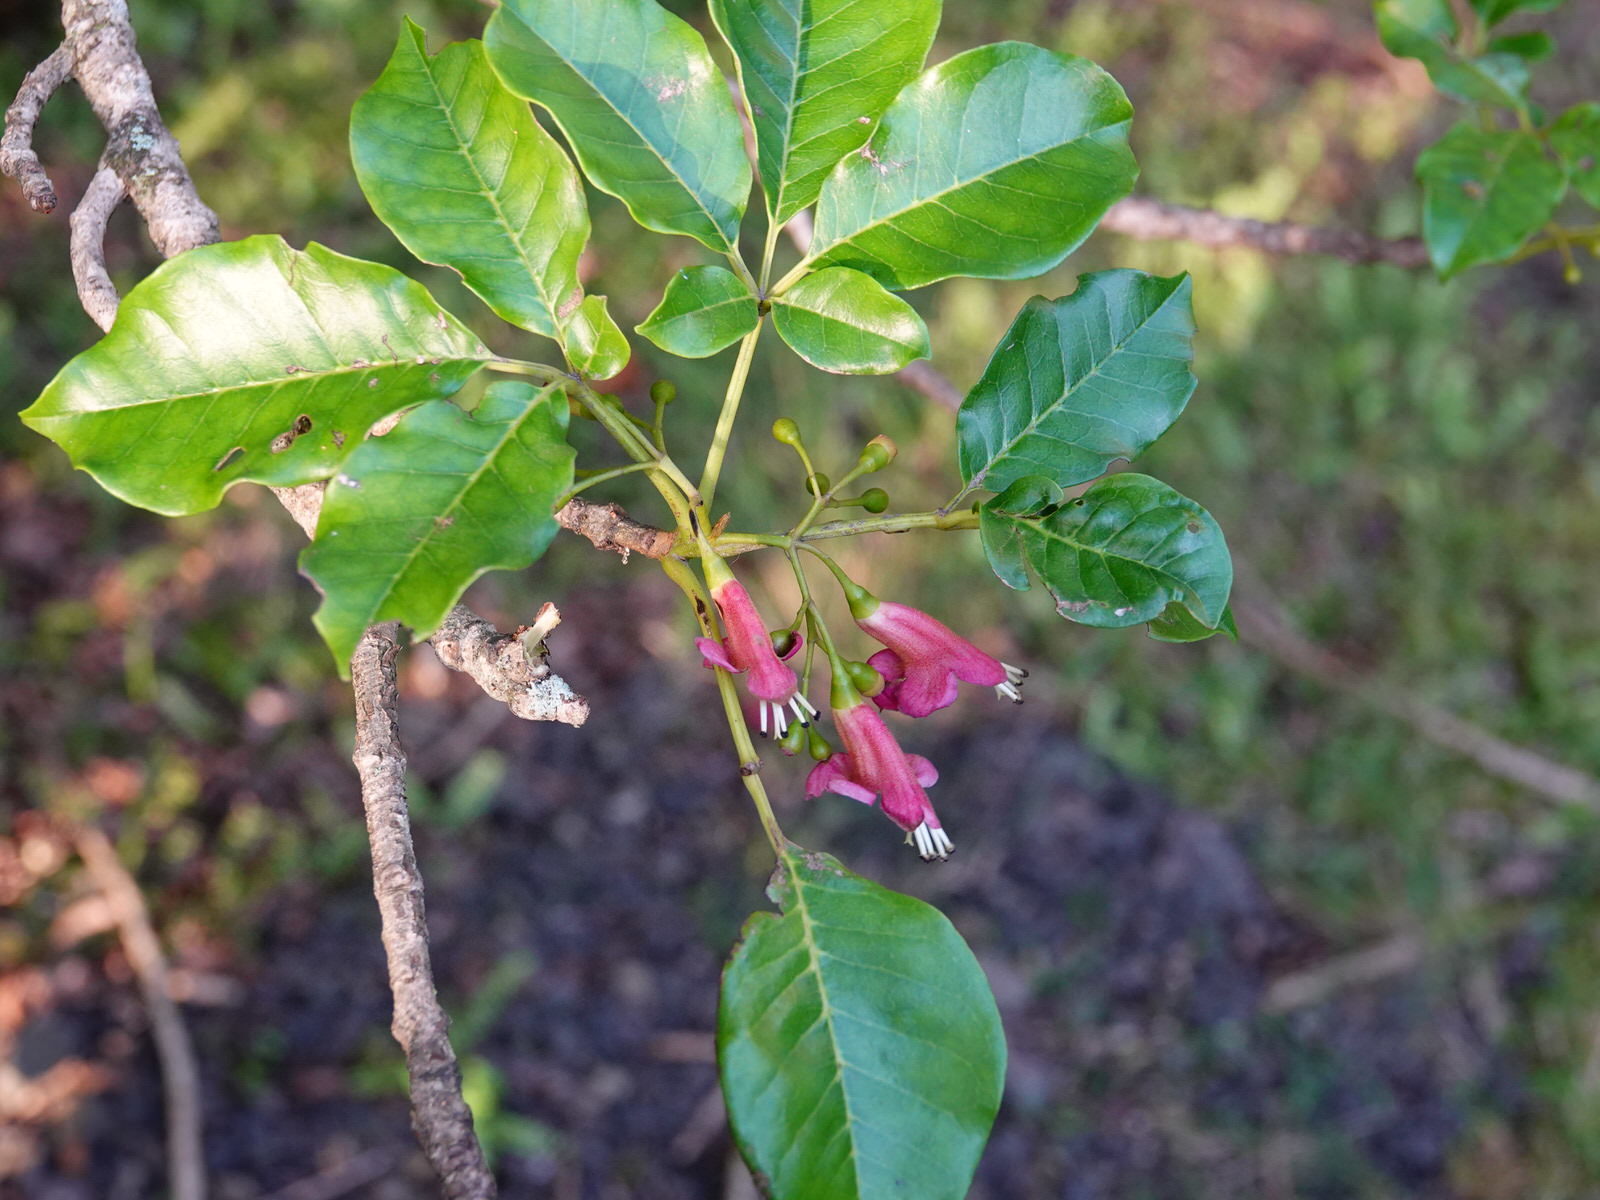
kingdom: Plantae
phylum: Tracheophyta
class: Magnoliopsida
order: Lamiales
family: Lamiaceae
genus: Vitex
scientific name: Vitex lucens
